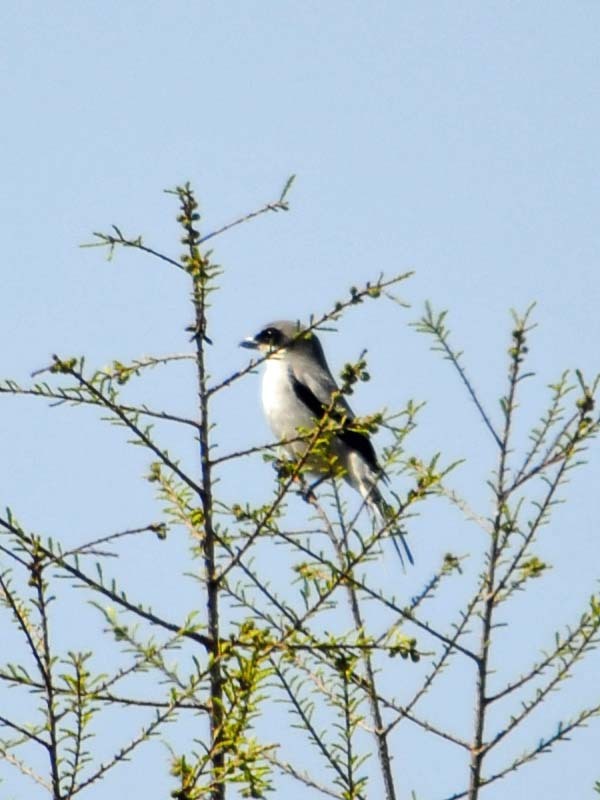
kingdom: Animalia
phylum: Chordata
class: Aves
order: Passeriformes
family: Laniidae
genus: Lanius
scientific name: Lanius ludovicianus
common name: Loggerhead shrike
